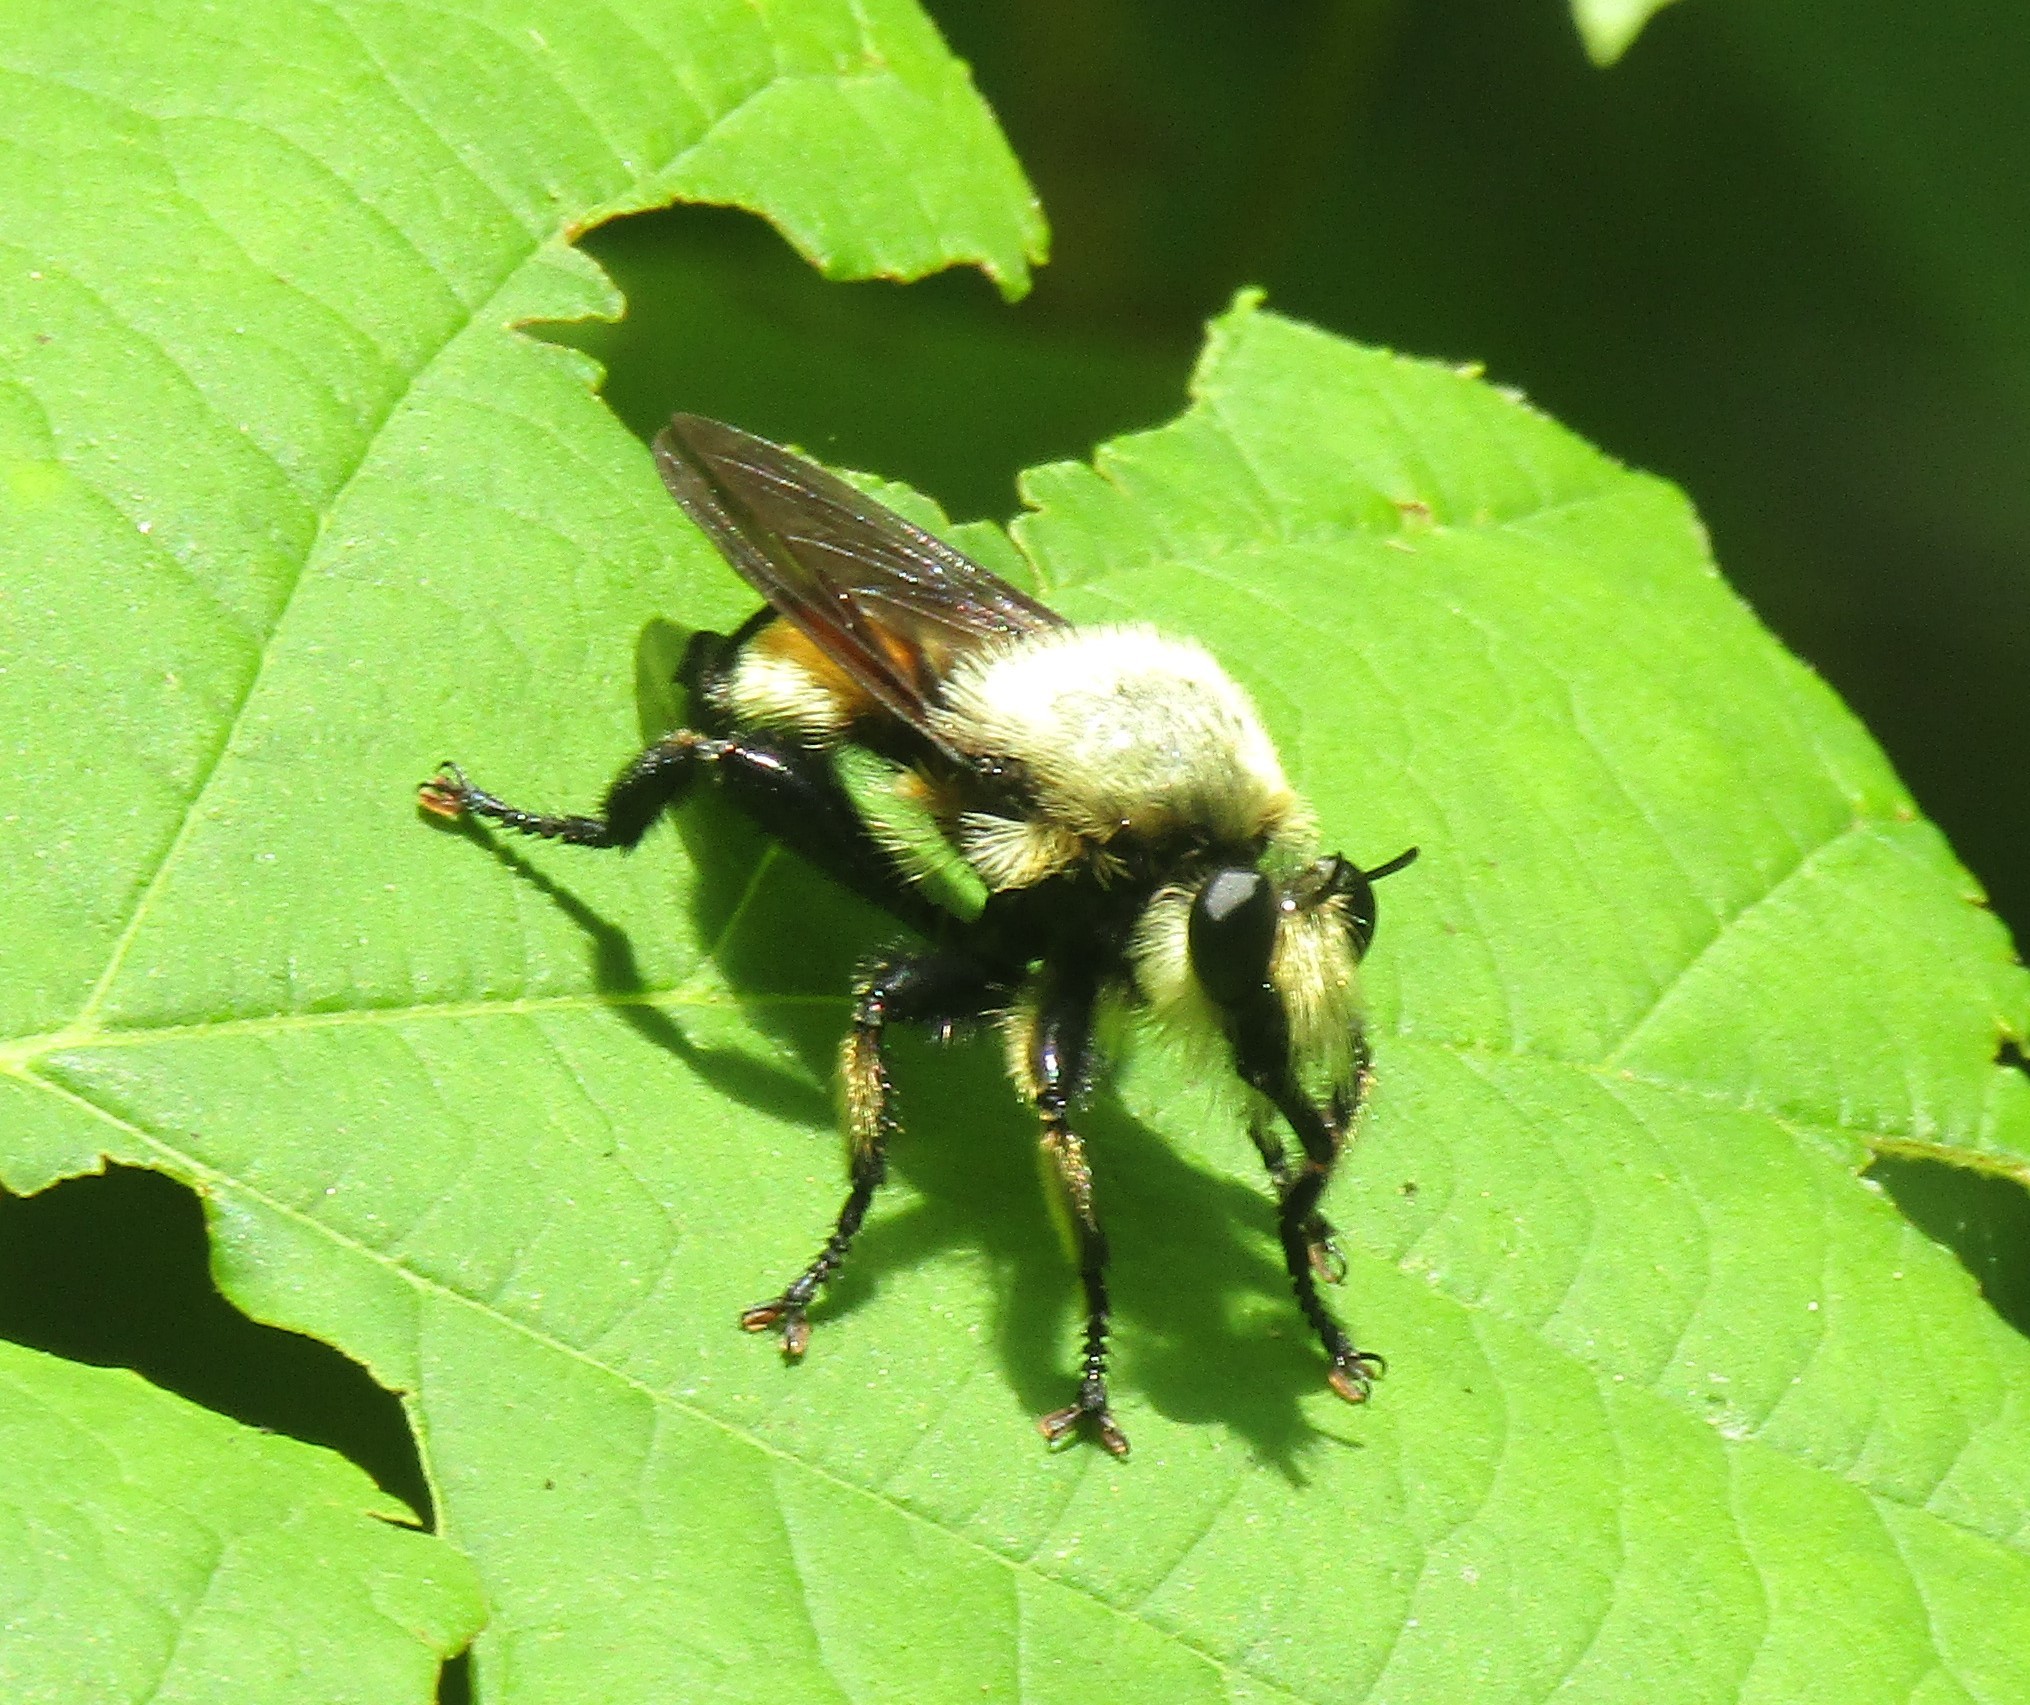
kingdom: Animalia
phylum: Arthropoda
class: Insecta
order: Diptera
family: Asilidae
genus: Laphria
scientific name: Laphria grossa
